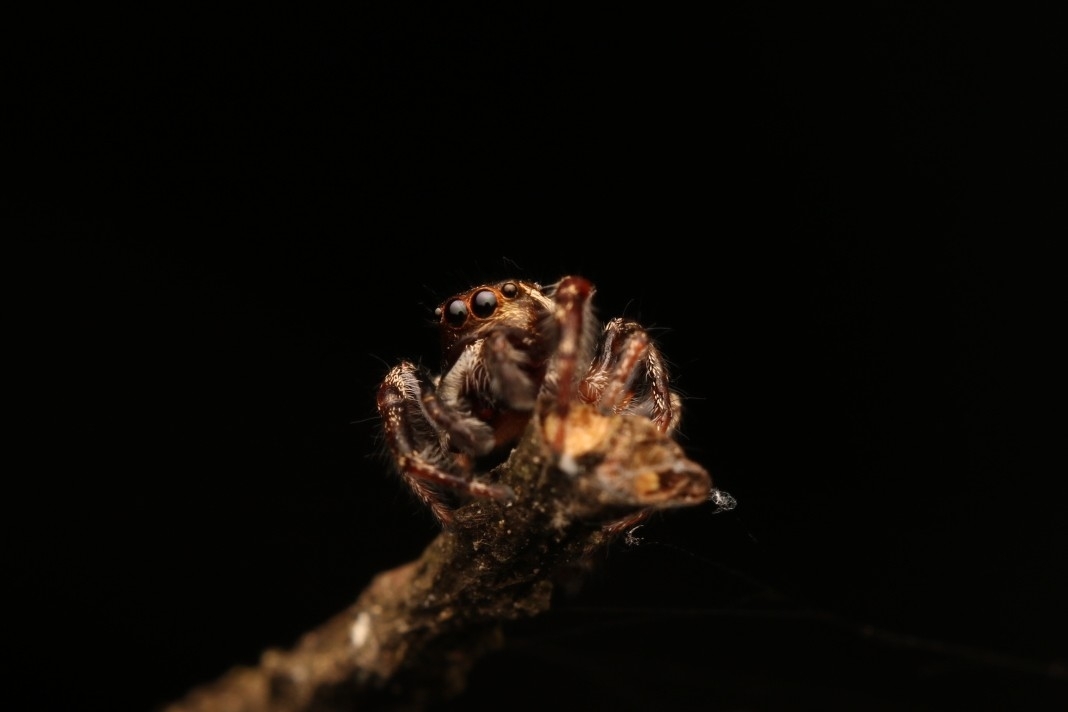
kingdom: Animalia
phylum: Arthropoda
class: Arachnida
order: Araneae
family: Salticidae
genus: Eris
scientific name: Eris militaris
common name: Bronze jumper
